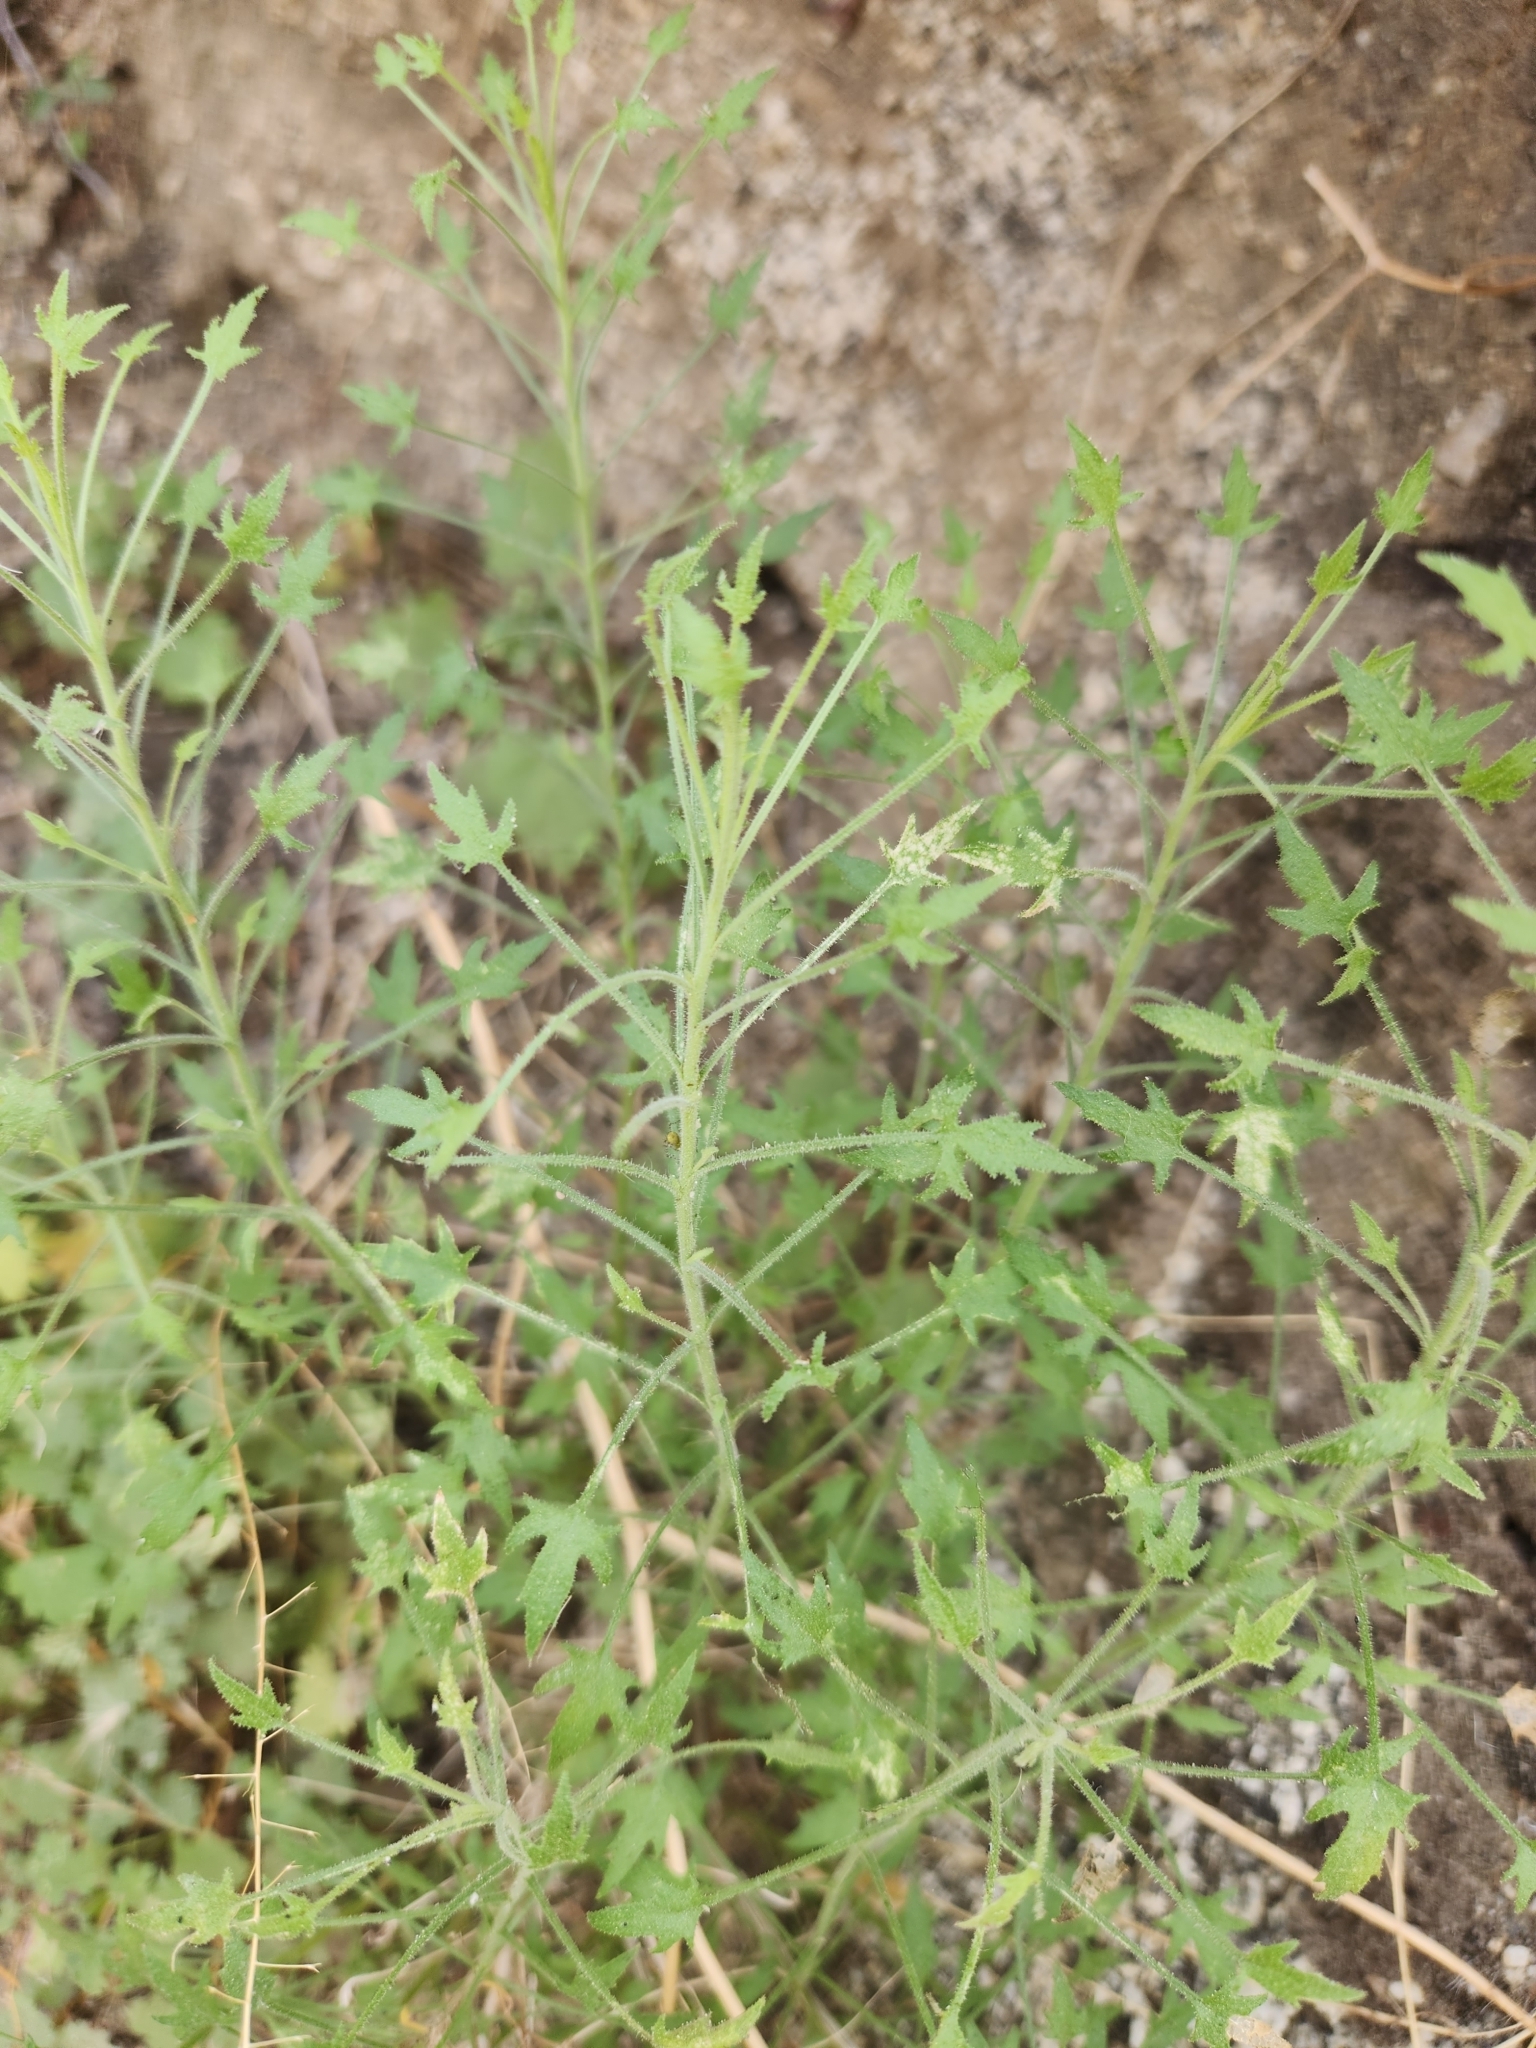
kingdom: Plantae
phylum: Tracheophyta
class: Magnoliopsida
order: Asterales
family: Asteraceae
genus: Pleurocoronis
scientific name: Pleurocoronis pluriseta
